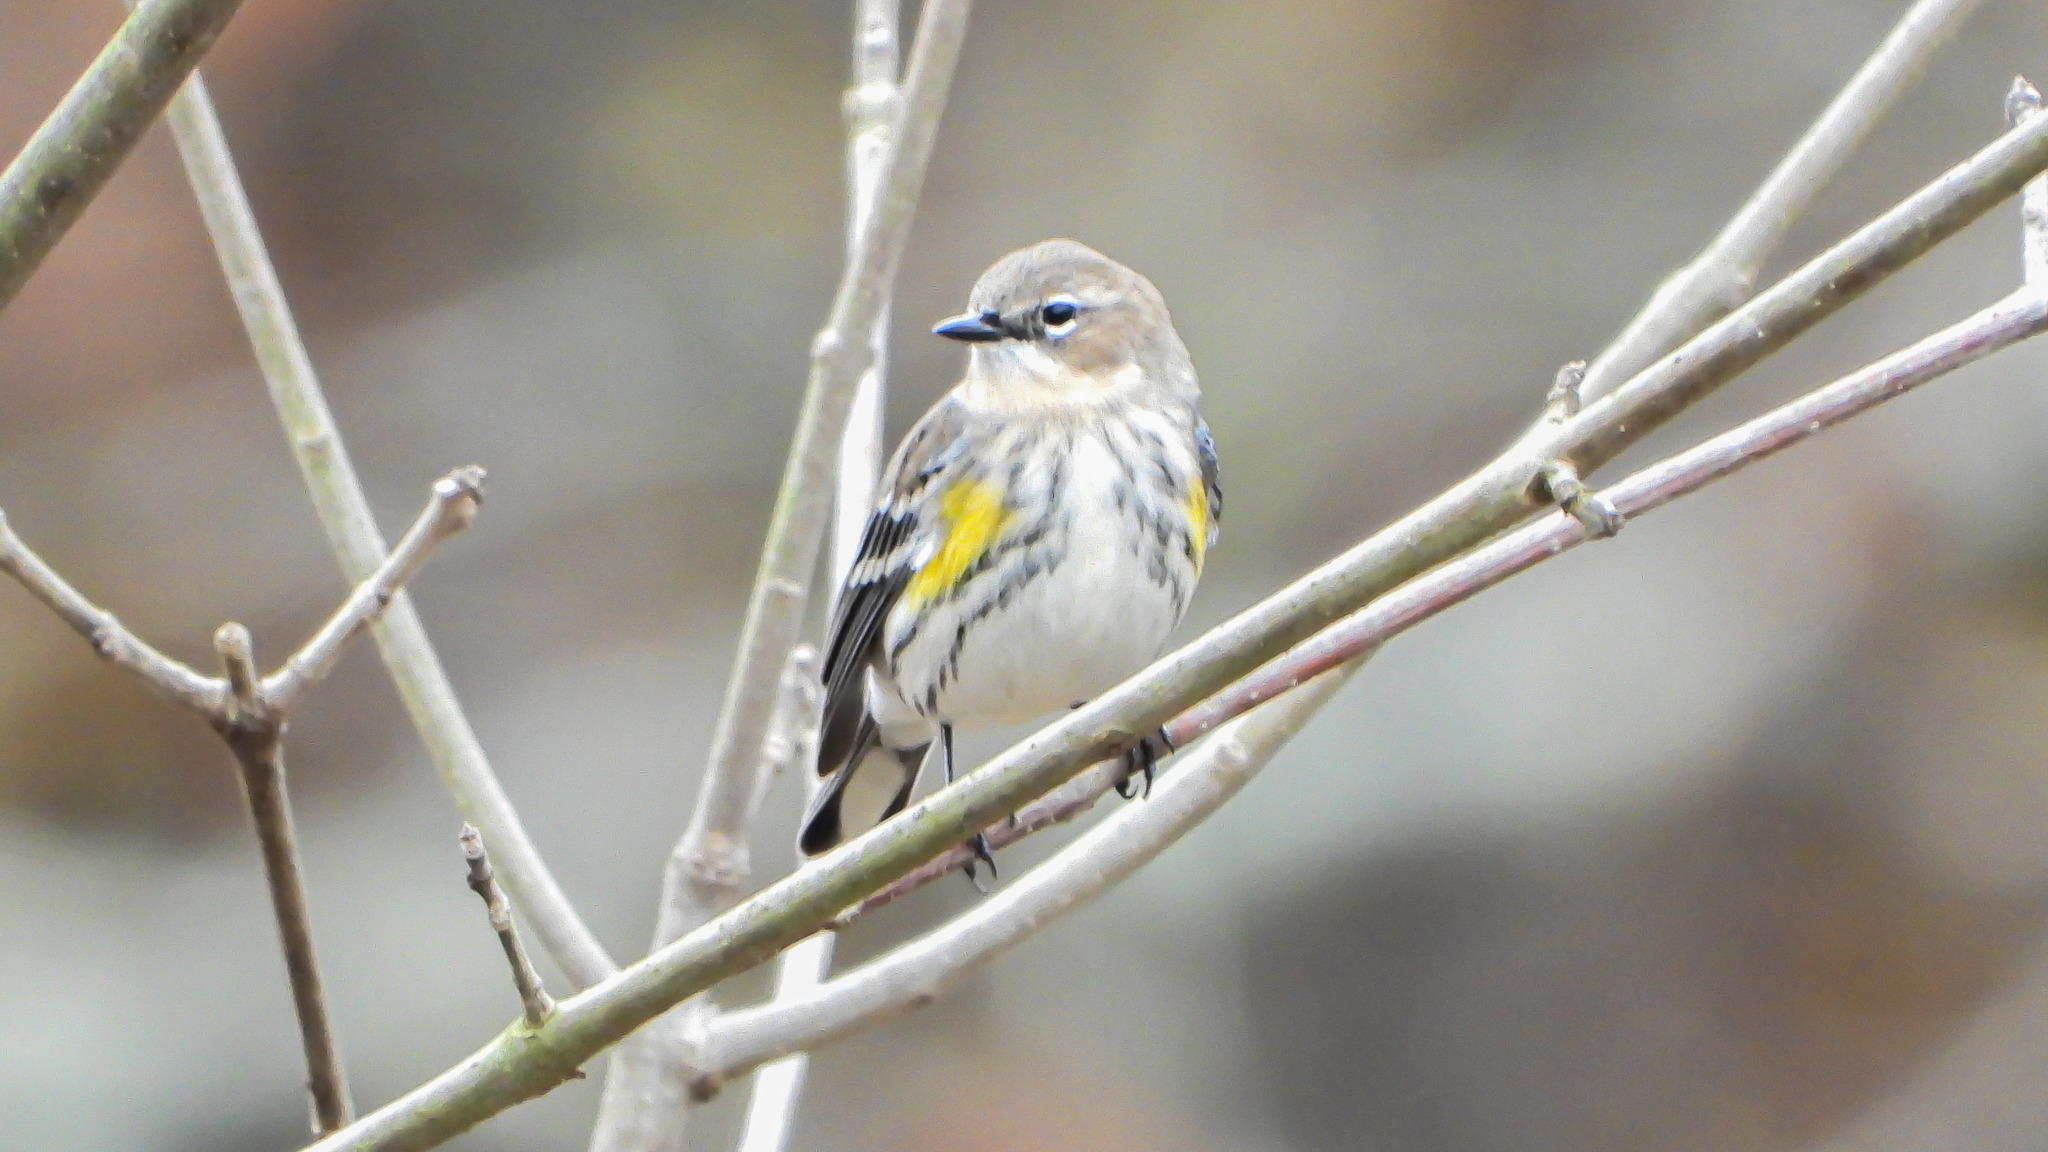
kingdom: Animalia
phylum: Chordata
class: Aves
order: Passeriformes
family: Parulidae
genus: Setophaga
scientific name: Setophaga coronata
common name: Myrtle warbler
